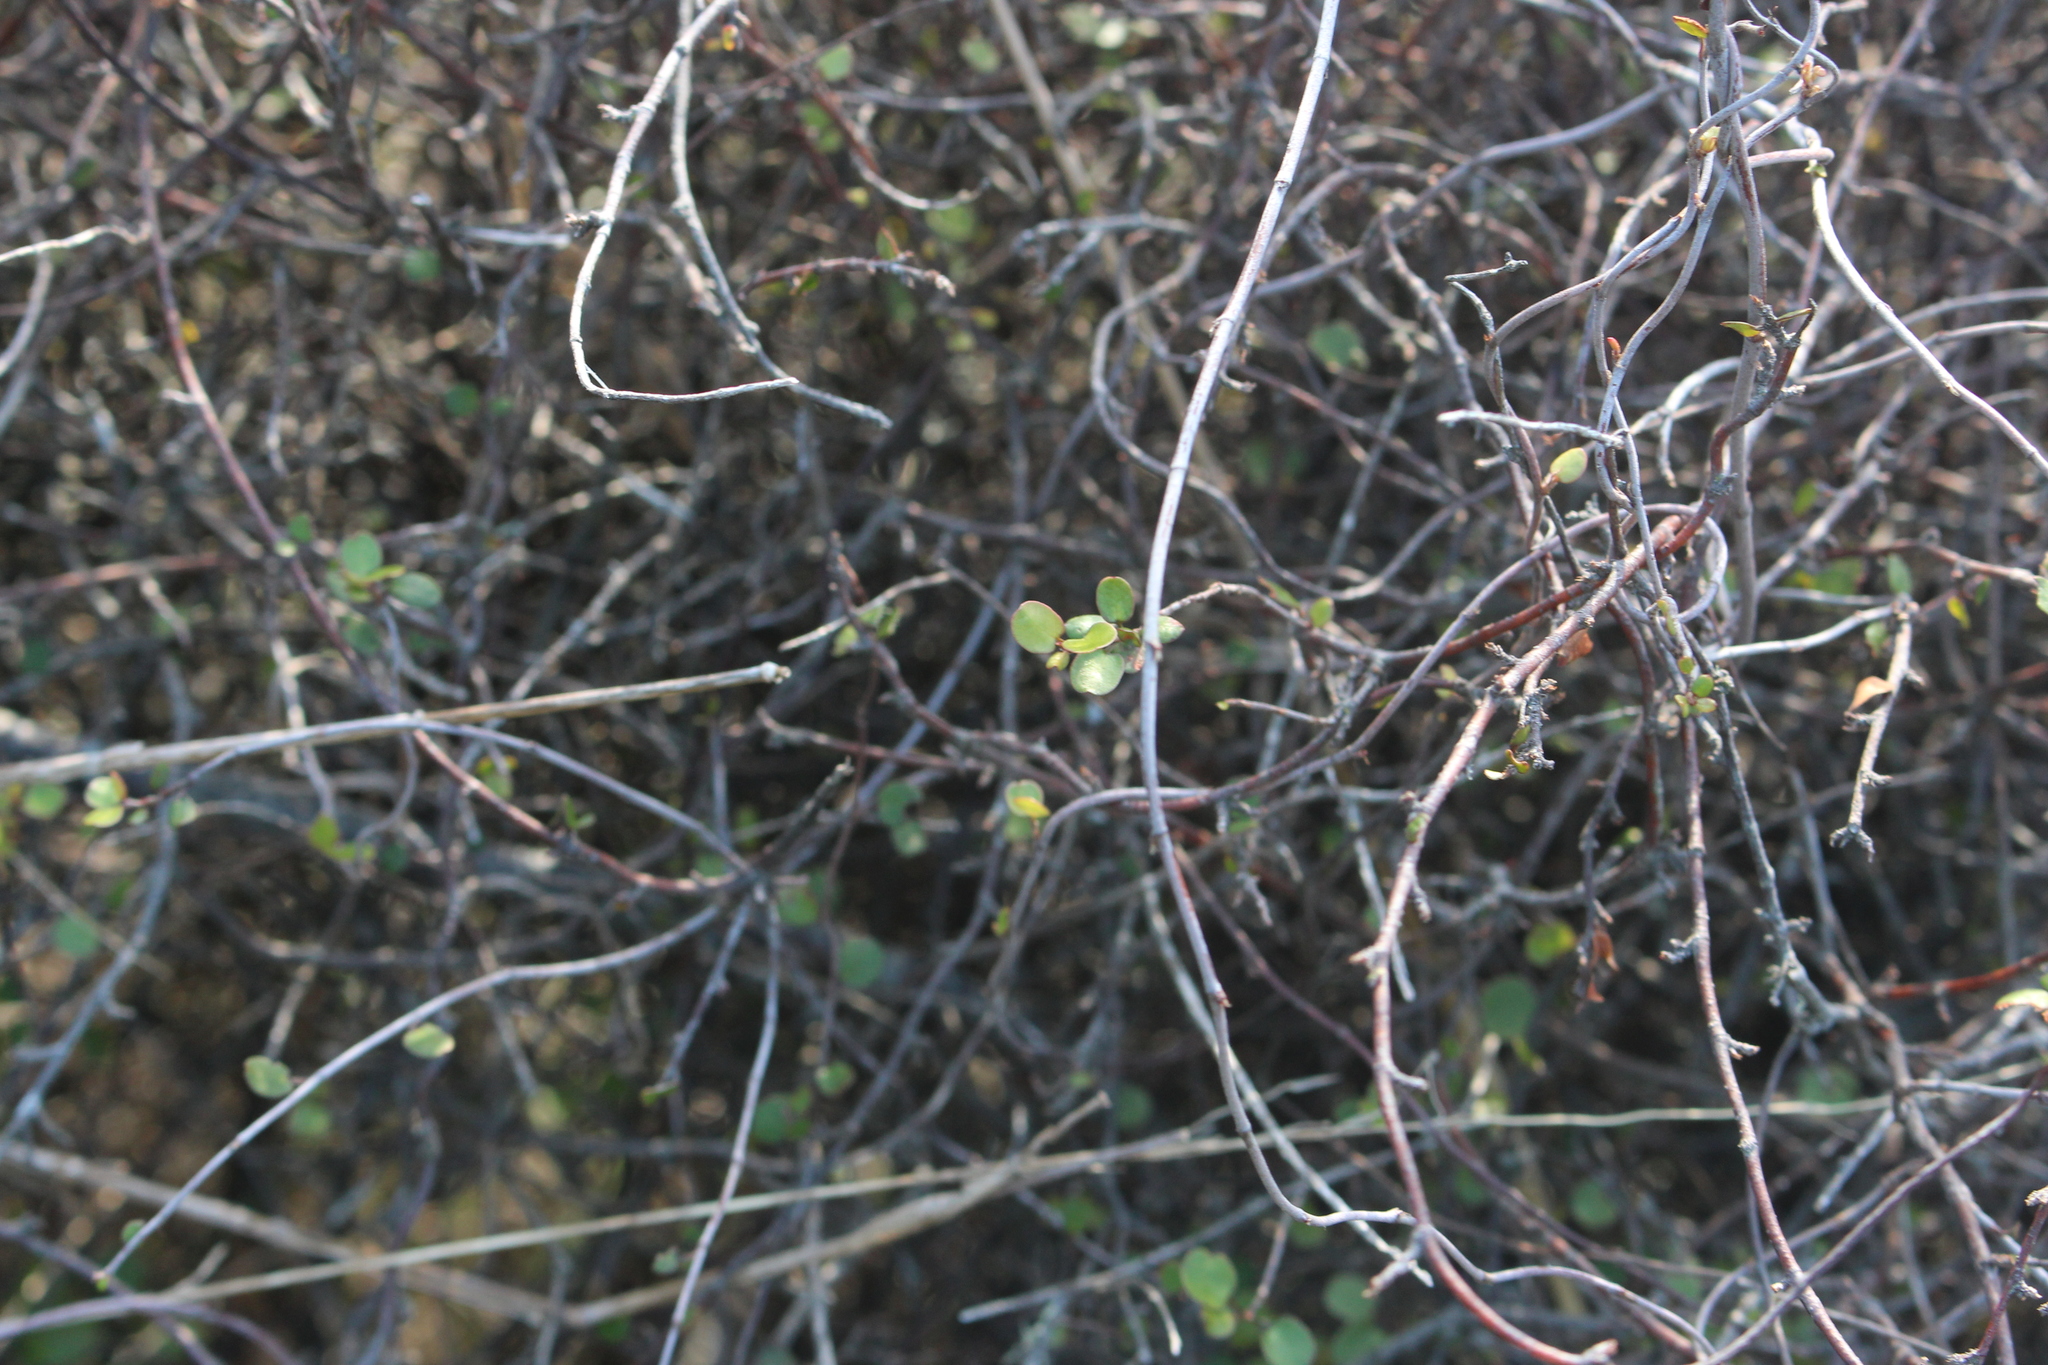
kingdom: Plantae
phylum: Tracheophyta
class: Magnoliopsida
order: Caryophyllales
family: Polygonaceae
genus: Muehlenbeckia
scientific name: Muehlenbeckia complexa
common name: Wireplant
